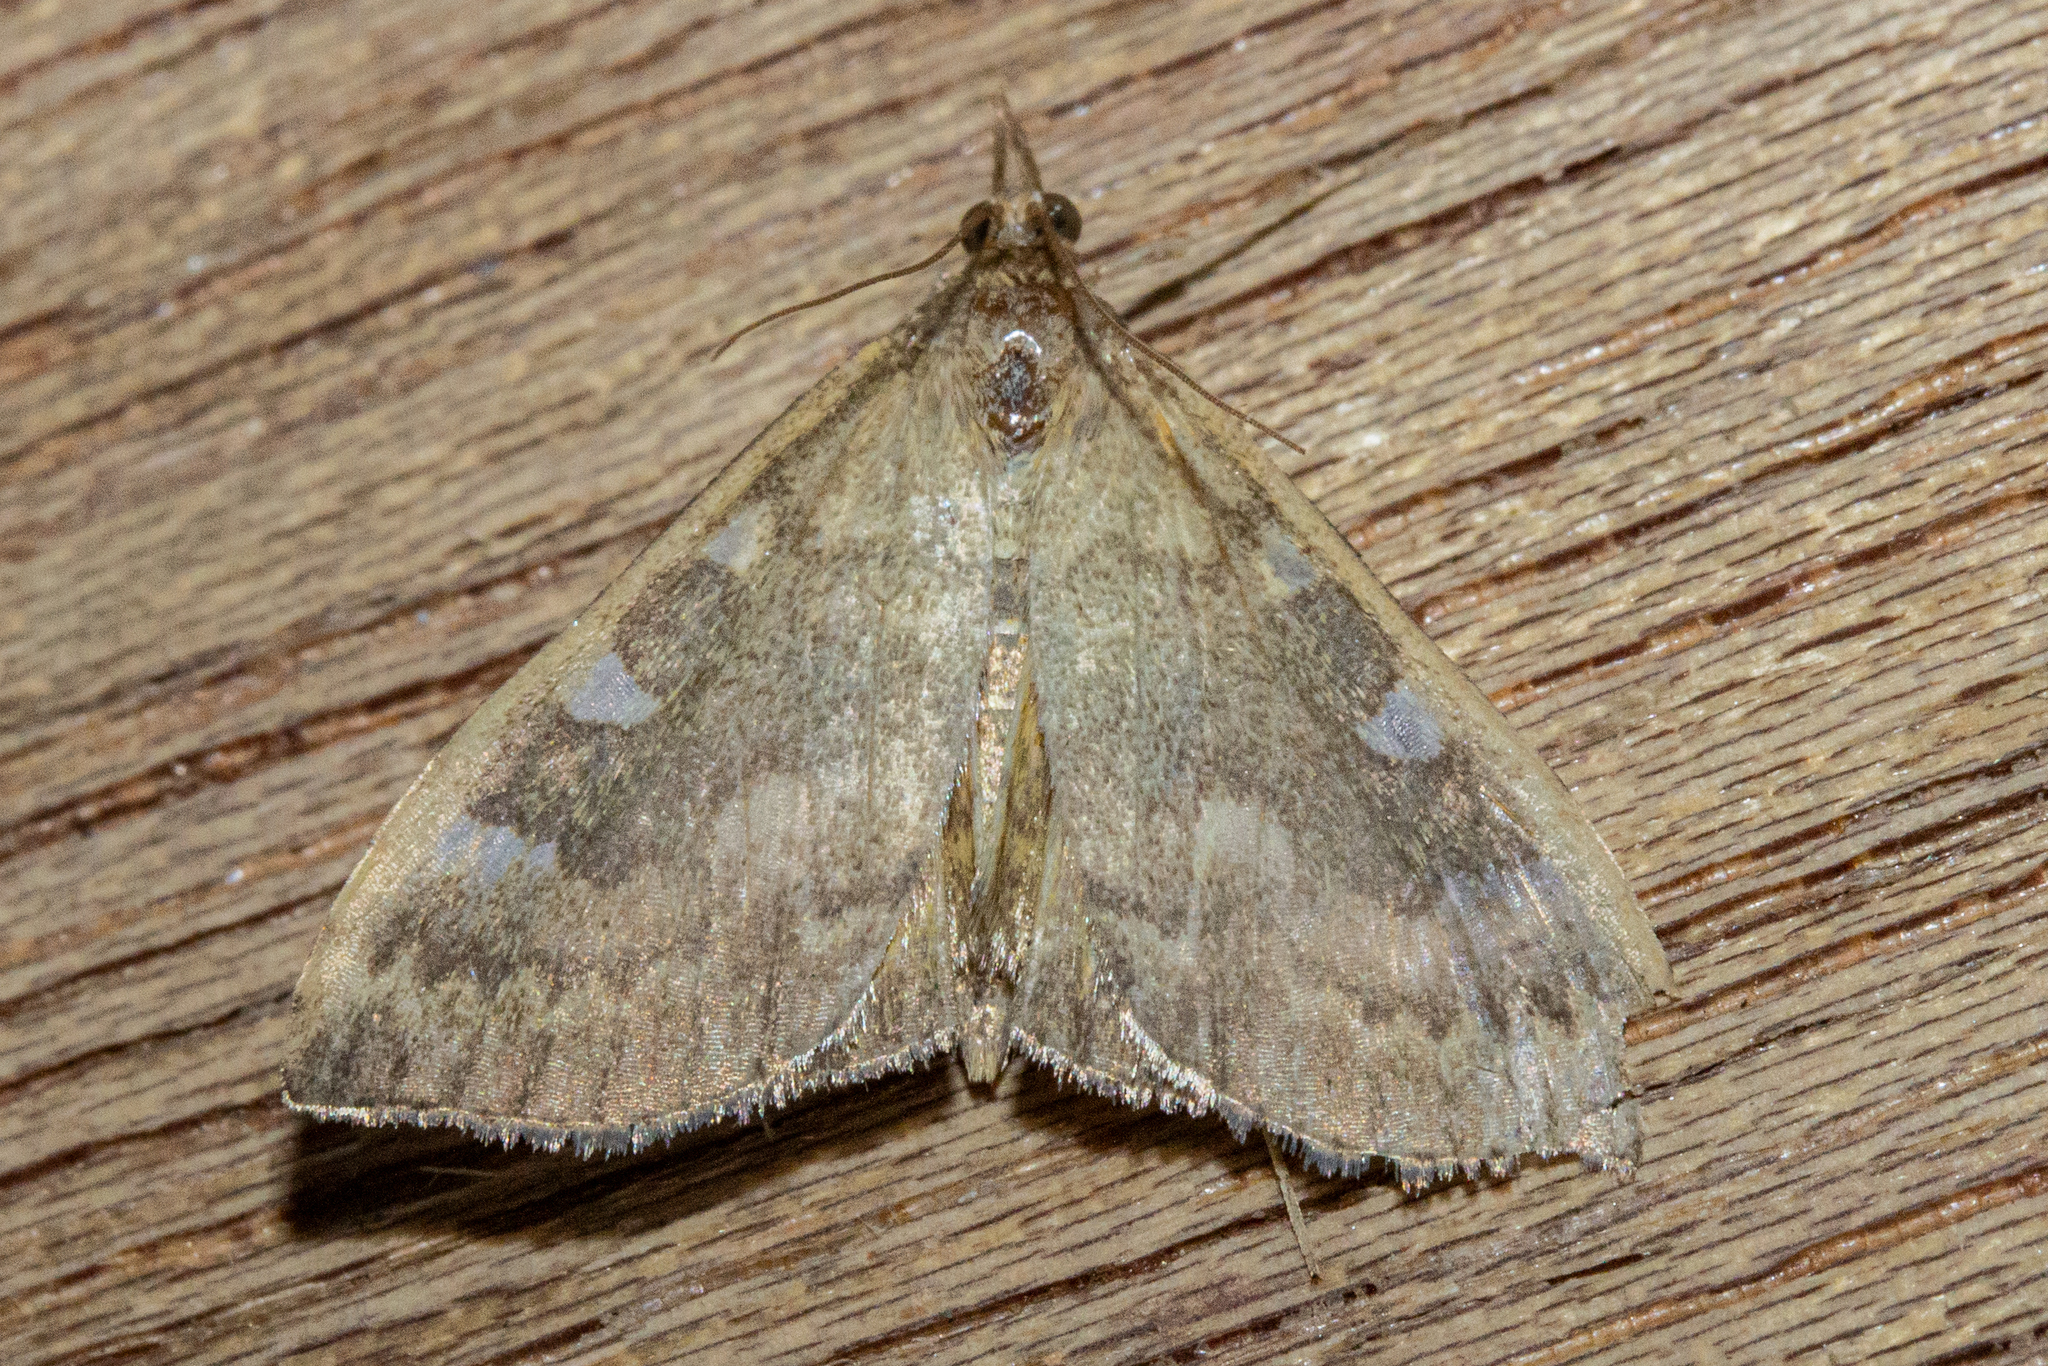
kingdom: Animalia
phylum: Arthropoda
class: Insecta
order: Lepidoptera
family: Crambidae
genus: Udea
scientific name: Udea marmarina
